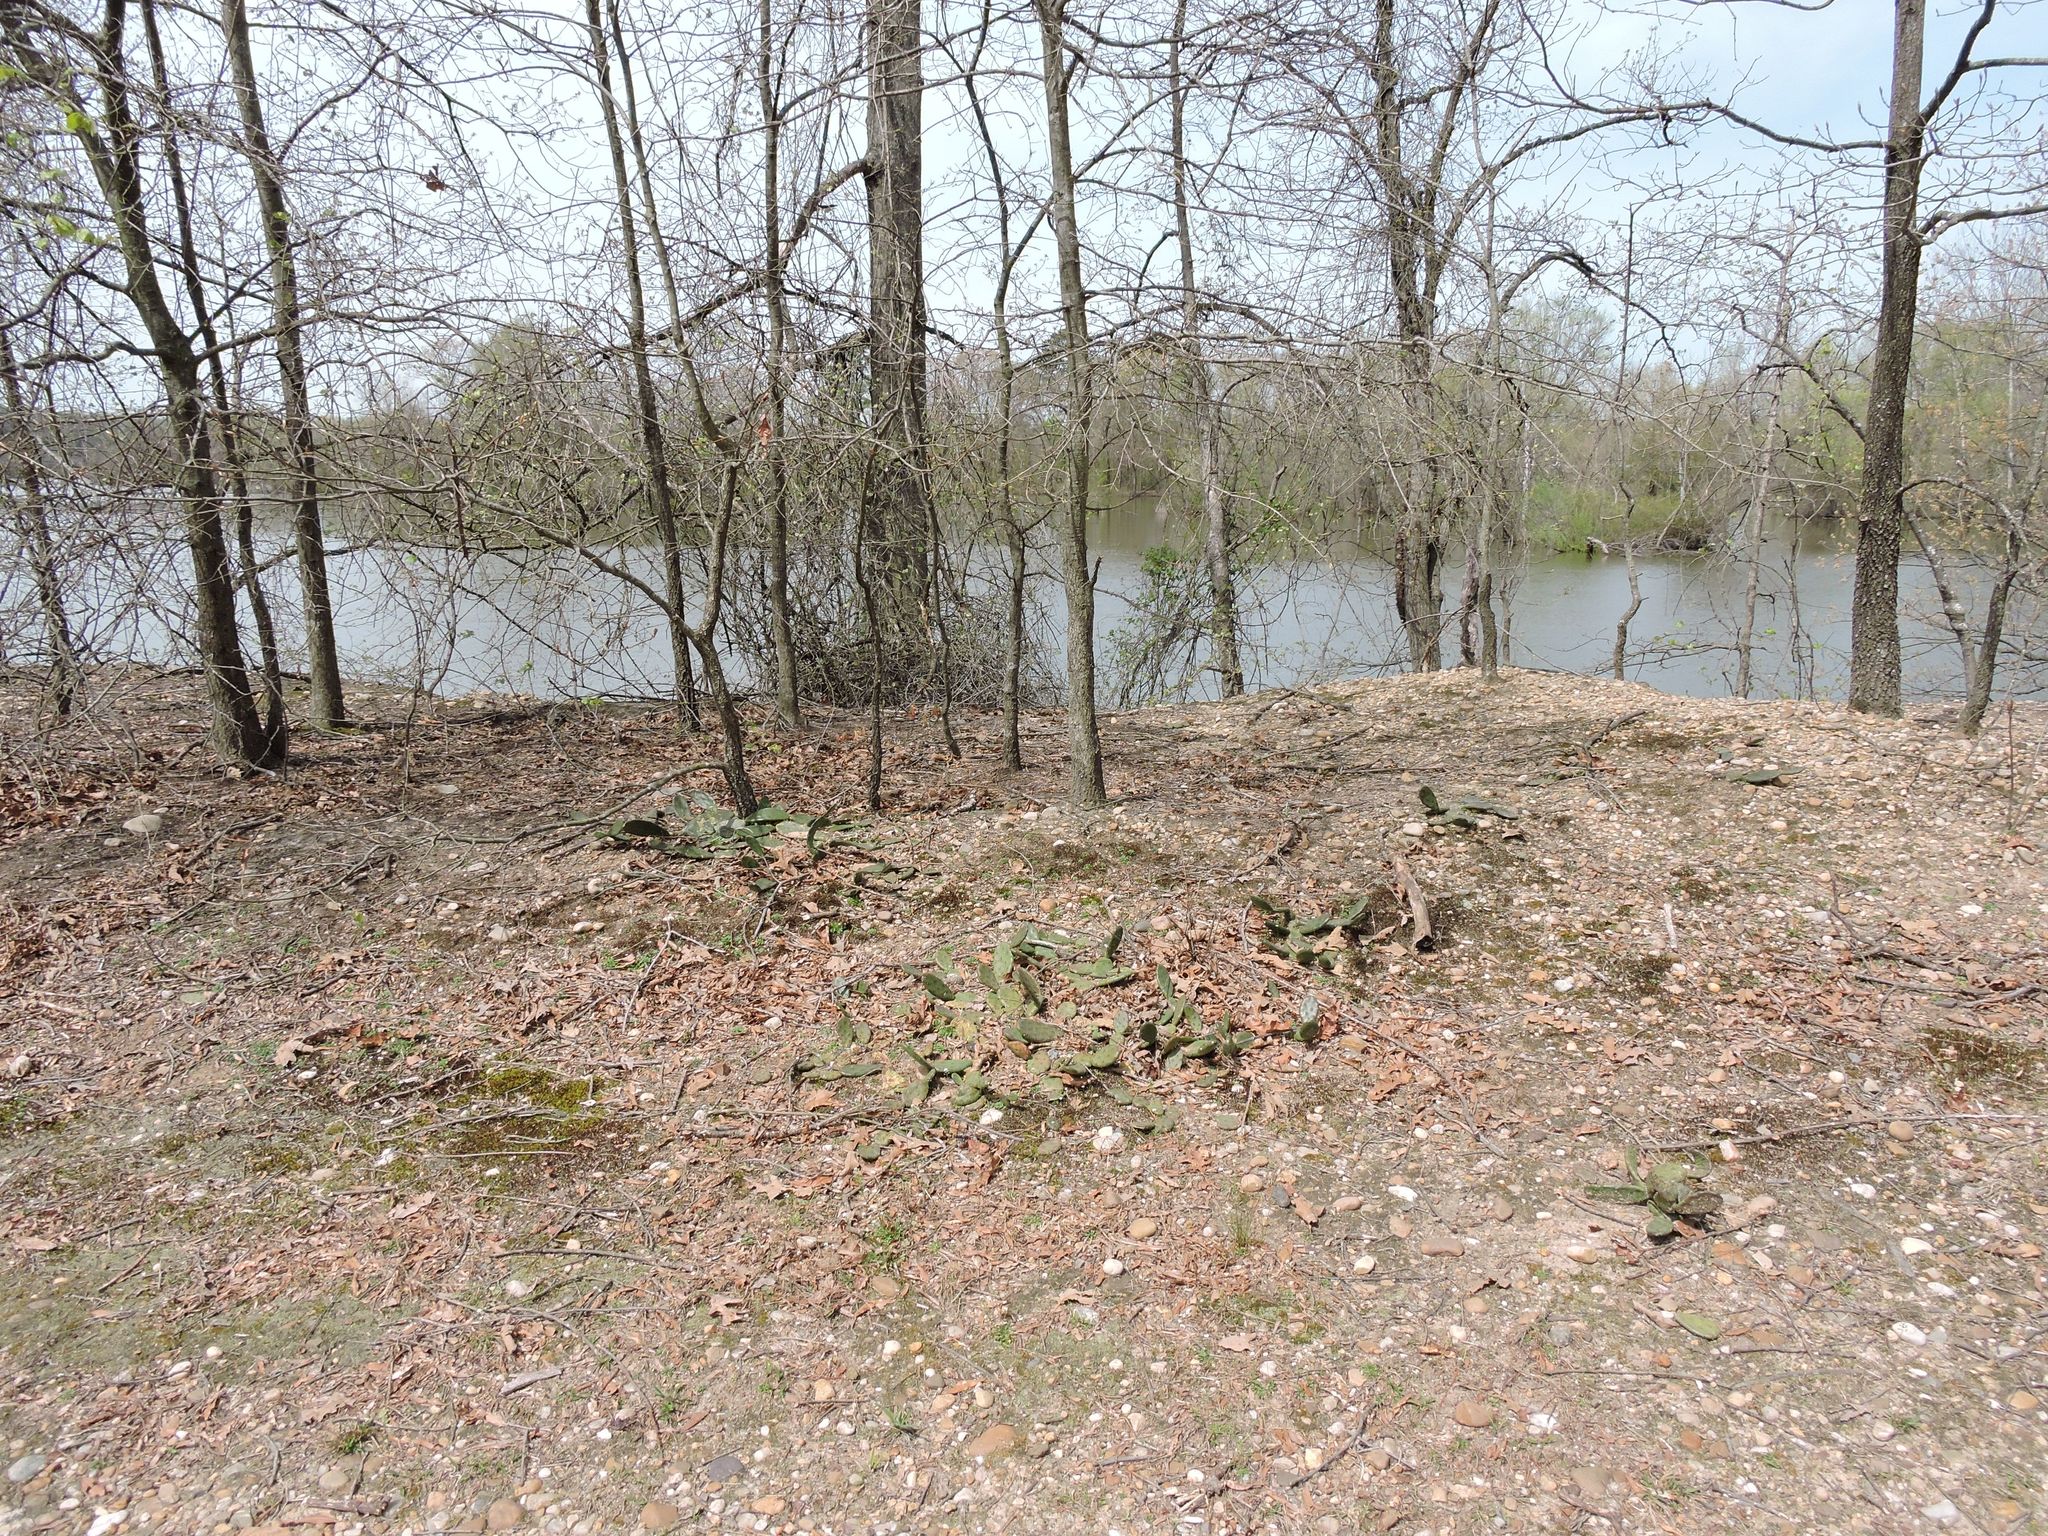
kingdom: Plantae
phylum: Tracheophyta
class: Magnoliopsida
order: Caryophyllales
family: Cactaceae
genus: Opuntia
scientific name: Opuntia humifusa
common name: Eastern prickly-pear
